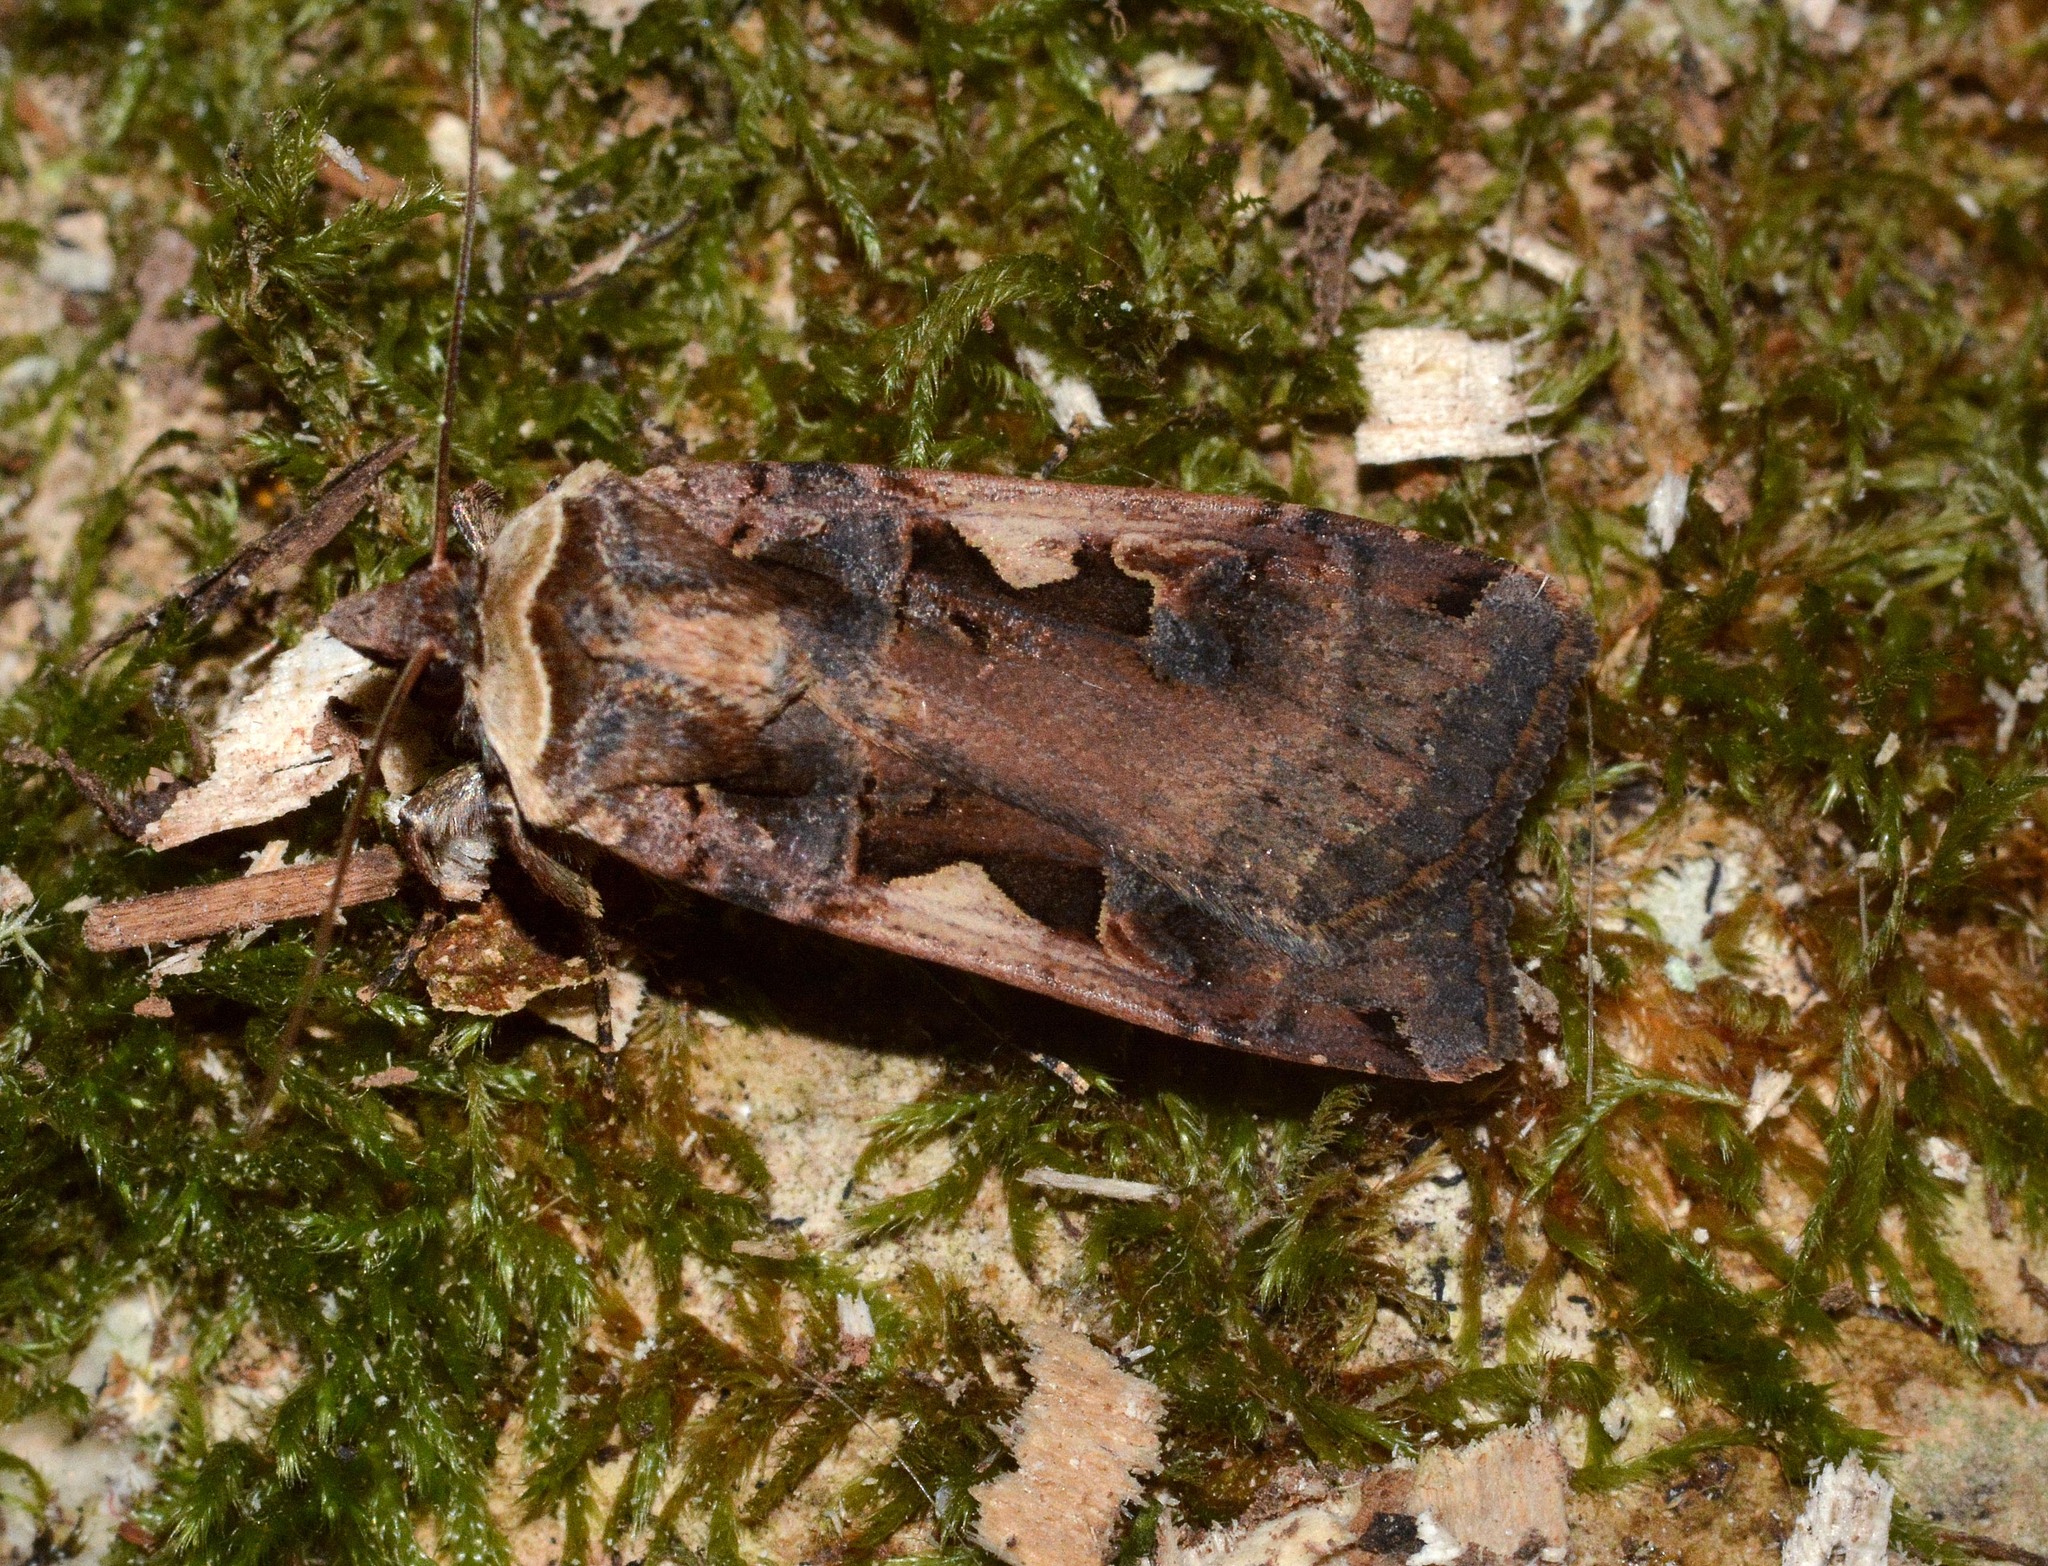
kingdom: Animalia
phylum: Arthropoda
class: Insecta
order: Lepidoptera
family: Noctuidae
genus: Xestia
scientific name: Xestia c-nigrum
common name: Setaceous hebrew character
